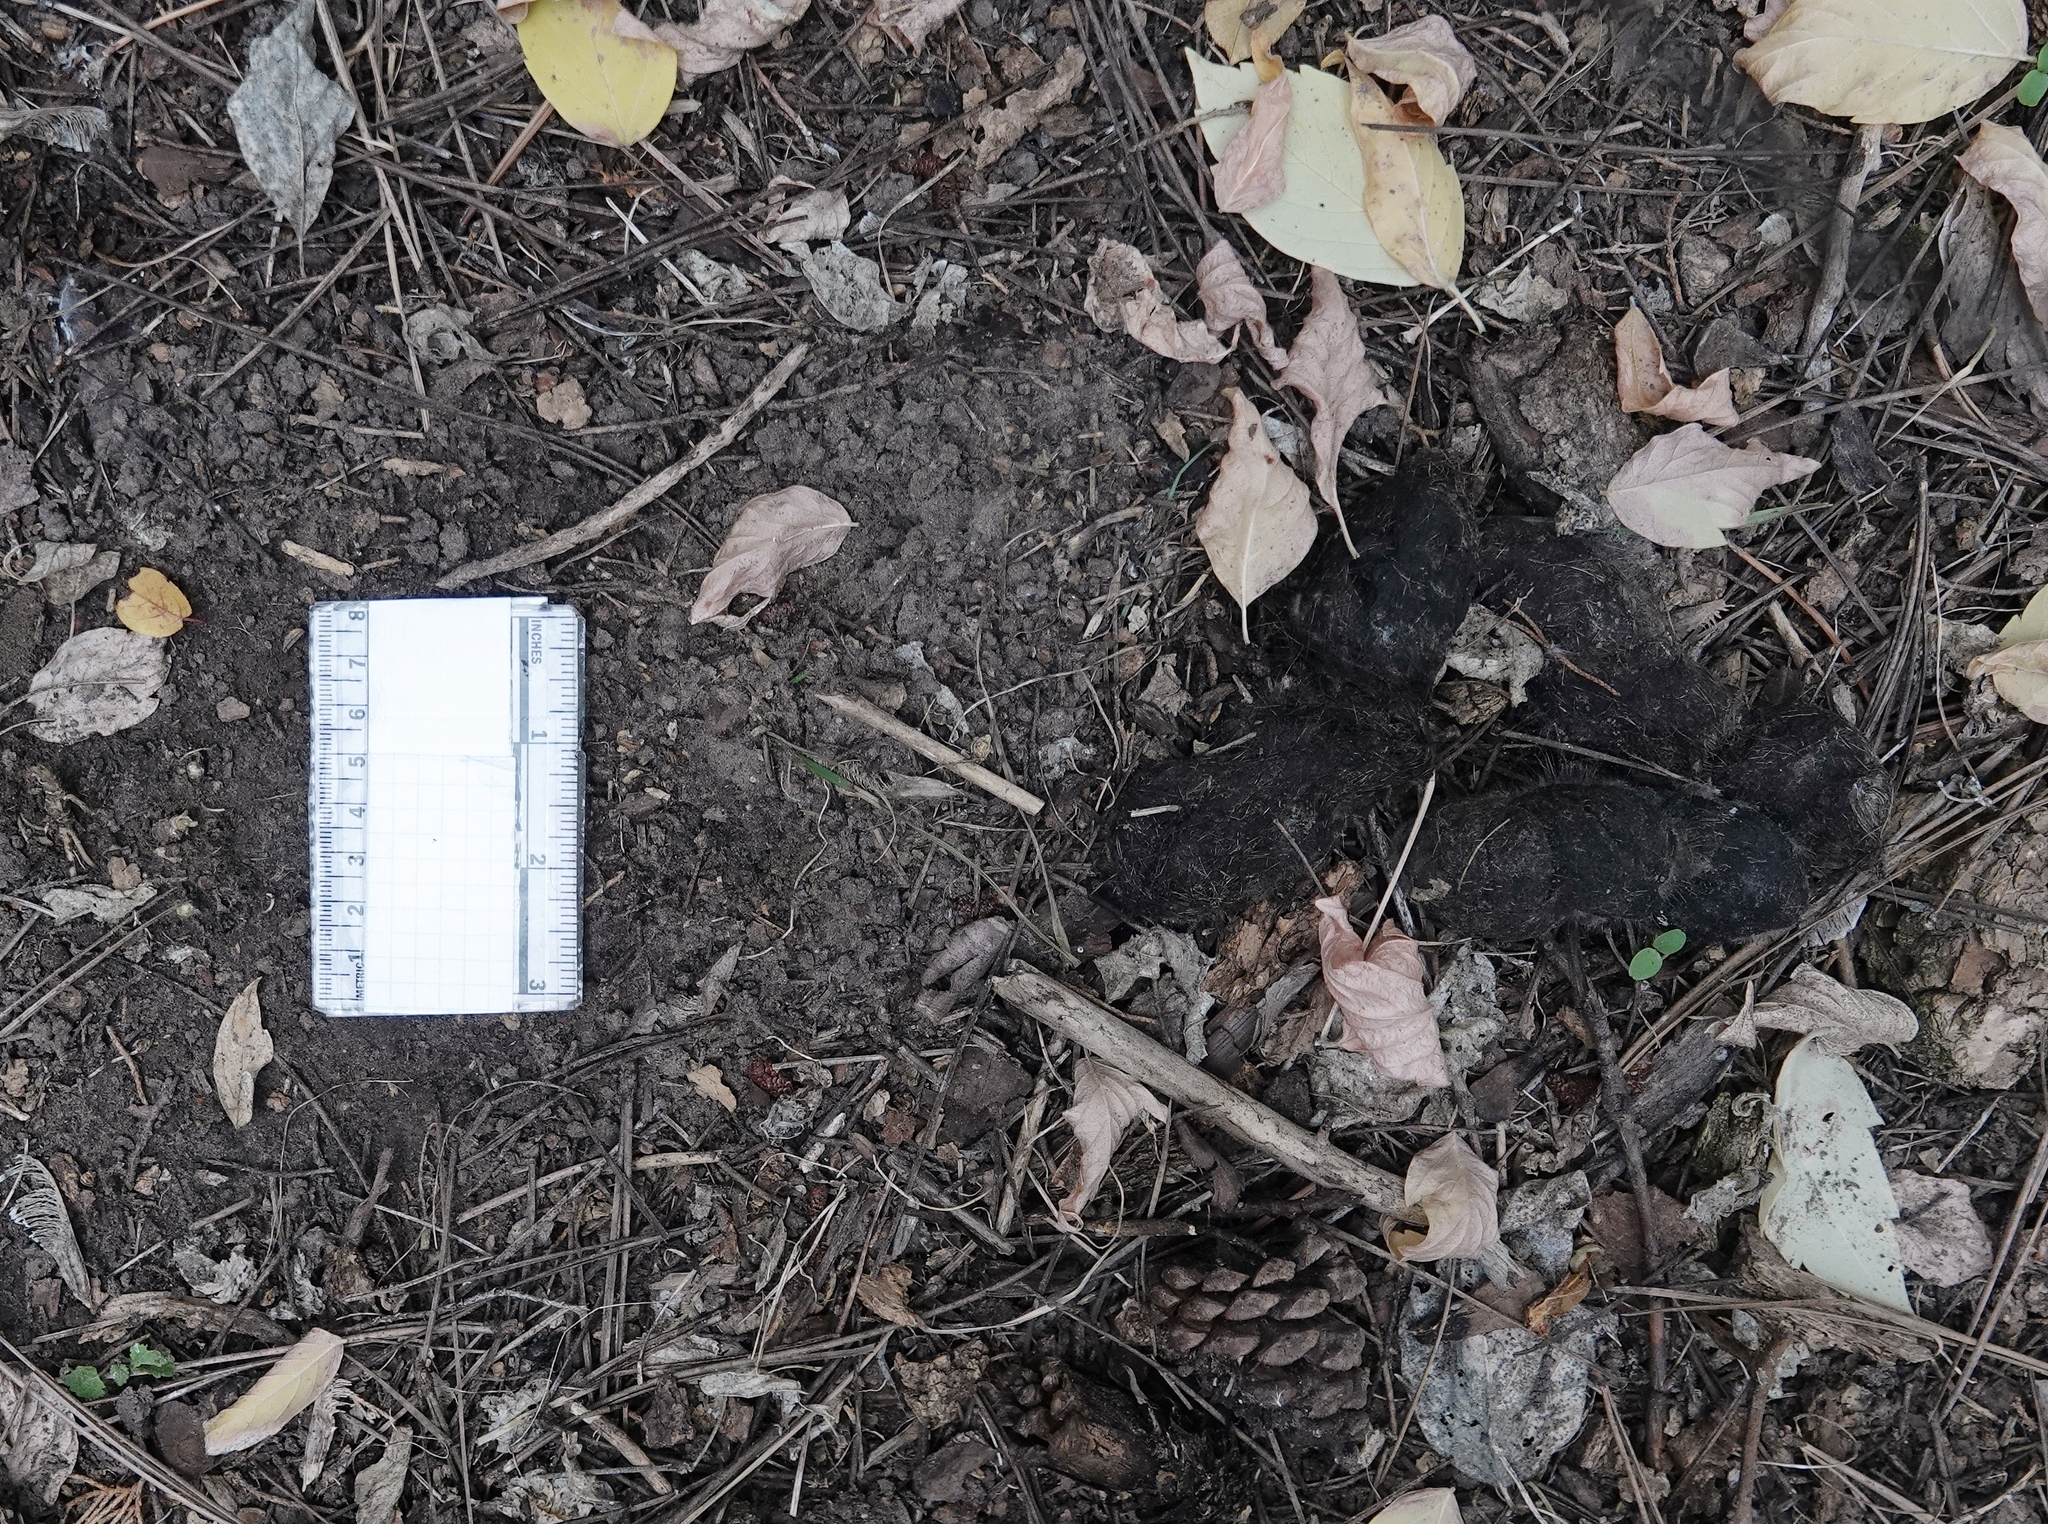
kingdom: Animalia
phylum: Chordata
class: Mammalia
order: Carnivora
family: Felidae
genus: Puma
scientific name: Puma concolor
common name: Puma
